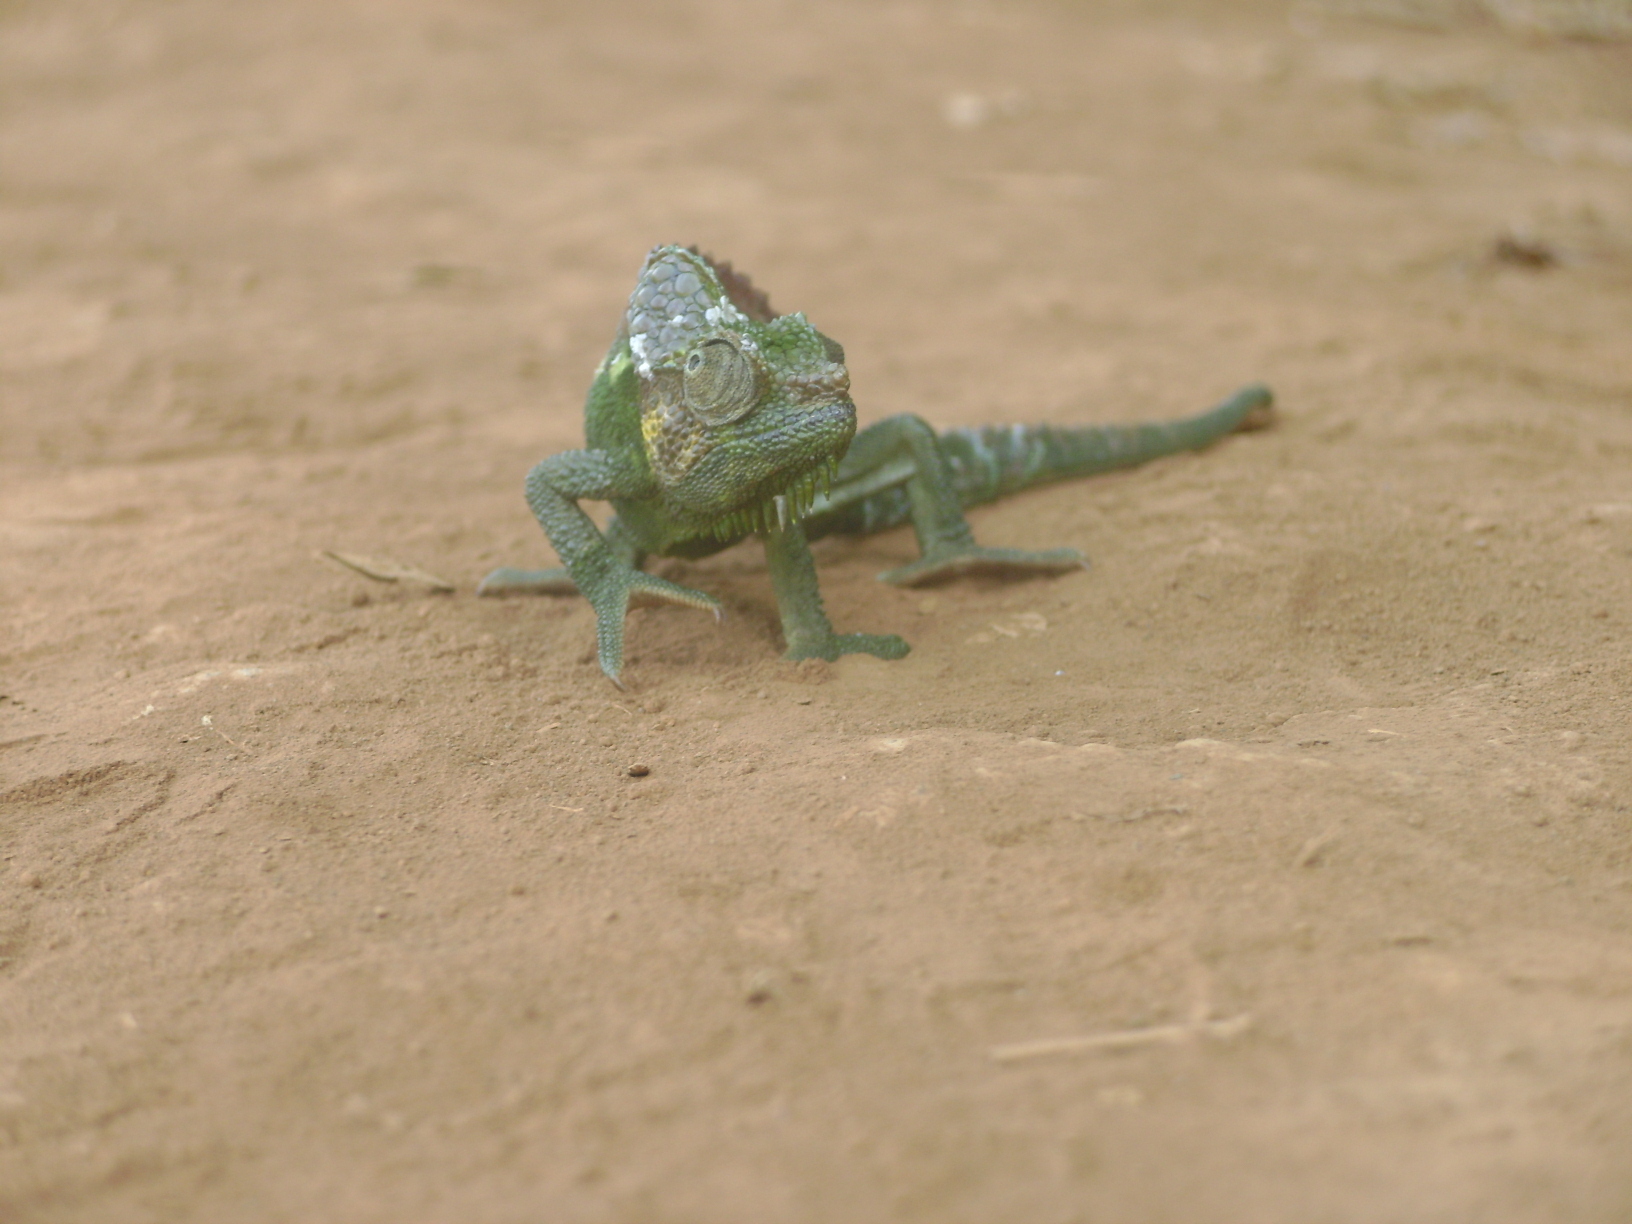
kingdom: Animalia
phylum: Chordata
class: Squamata
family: Chamaeleonidae
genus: Trioceros
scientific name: Trioceros hoehnelii
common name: High-casqued chameleon
